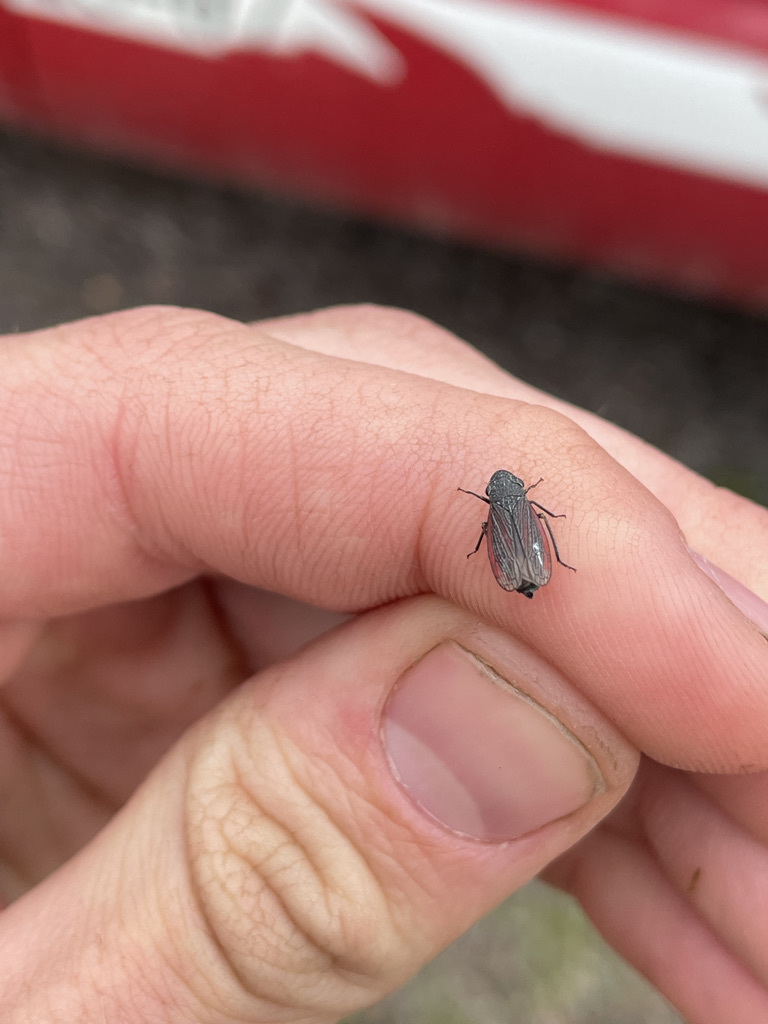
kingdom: Animalia
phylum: Arthropoda
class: Insecta
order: Hemiptera
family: Cicadellidae
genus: Cuerna
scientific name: Cuerna striata
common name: Striped leafhopper
